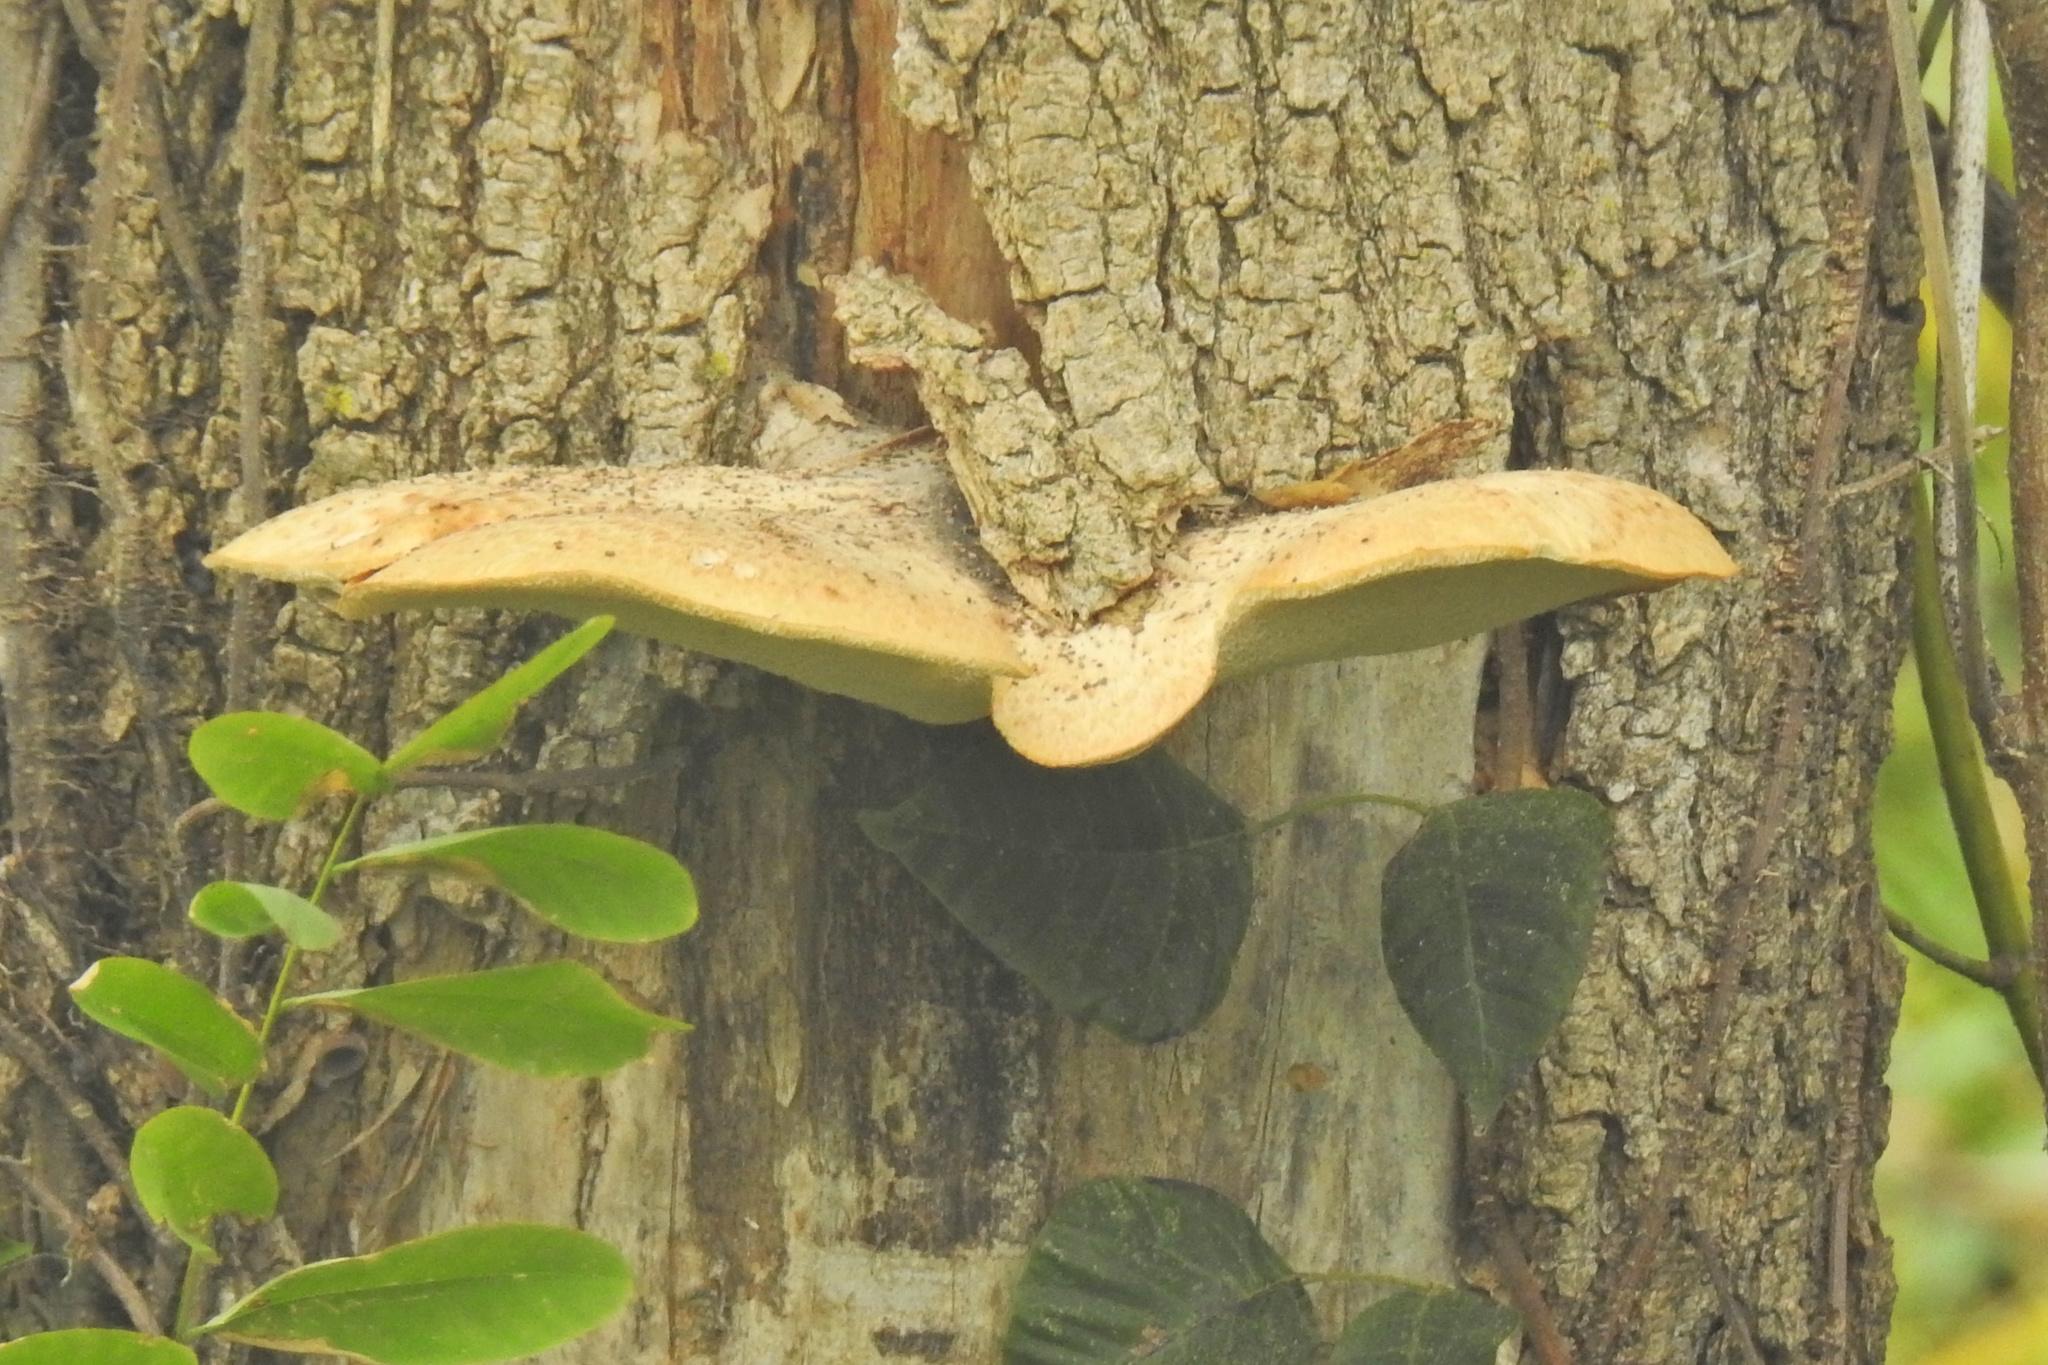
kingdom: Fungi
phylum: Basidiomycota
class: Agaricomycetes
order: Polyporales
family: Polyporaceae
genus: Cerioporus
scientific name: Cerioporus squamosus
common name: Dryad's saddle
